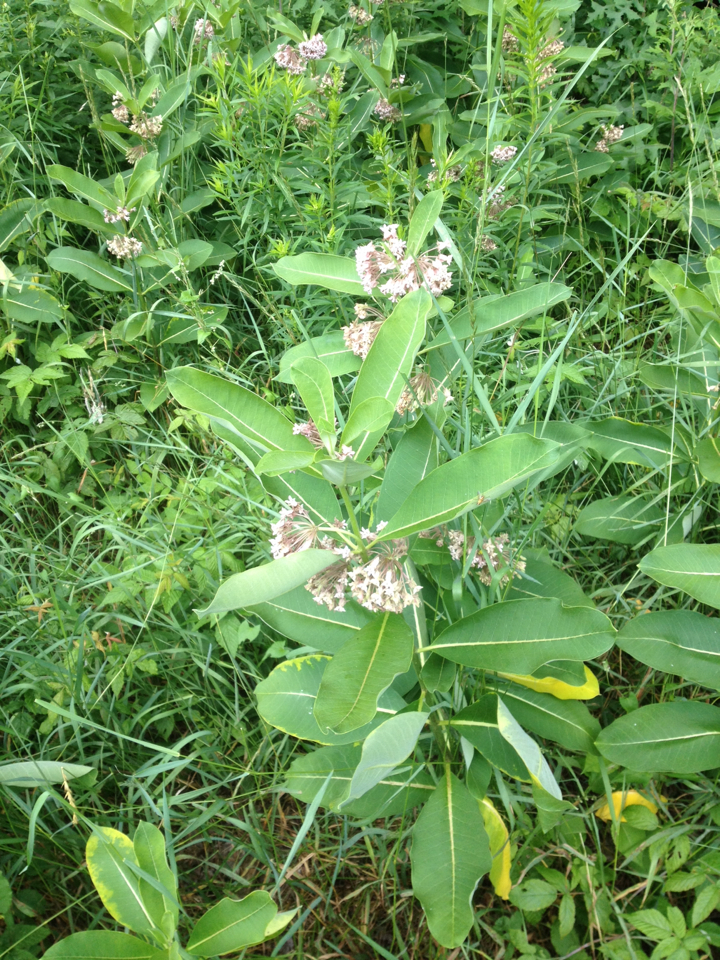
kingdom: Plantae
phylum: Tracheophyta
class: Magnoliopsida
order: Gentianales
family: Apocynaceae
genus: Asclepias
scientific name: Asclepias syriaca
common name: Common milkweed
